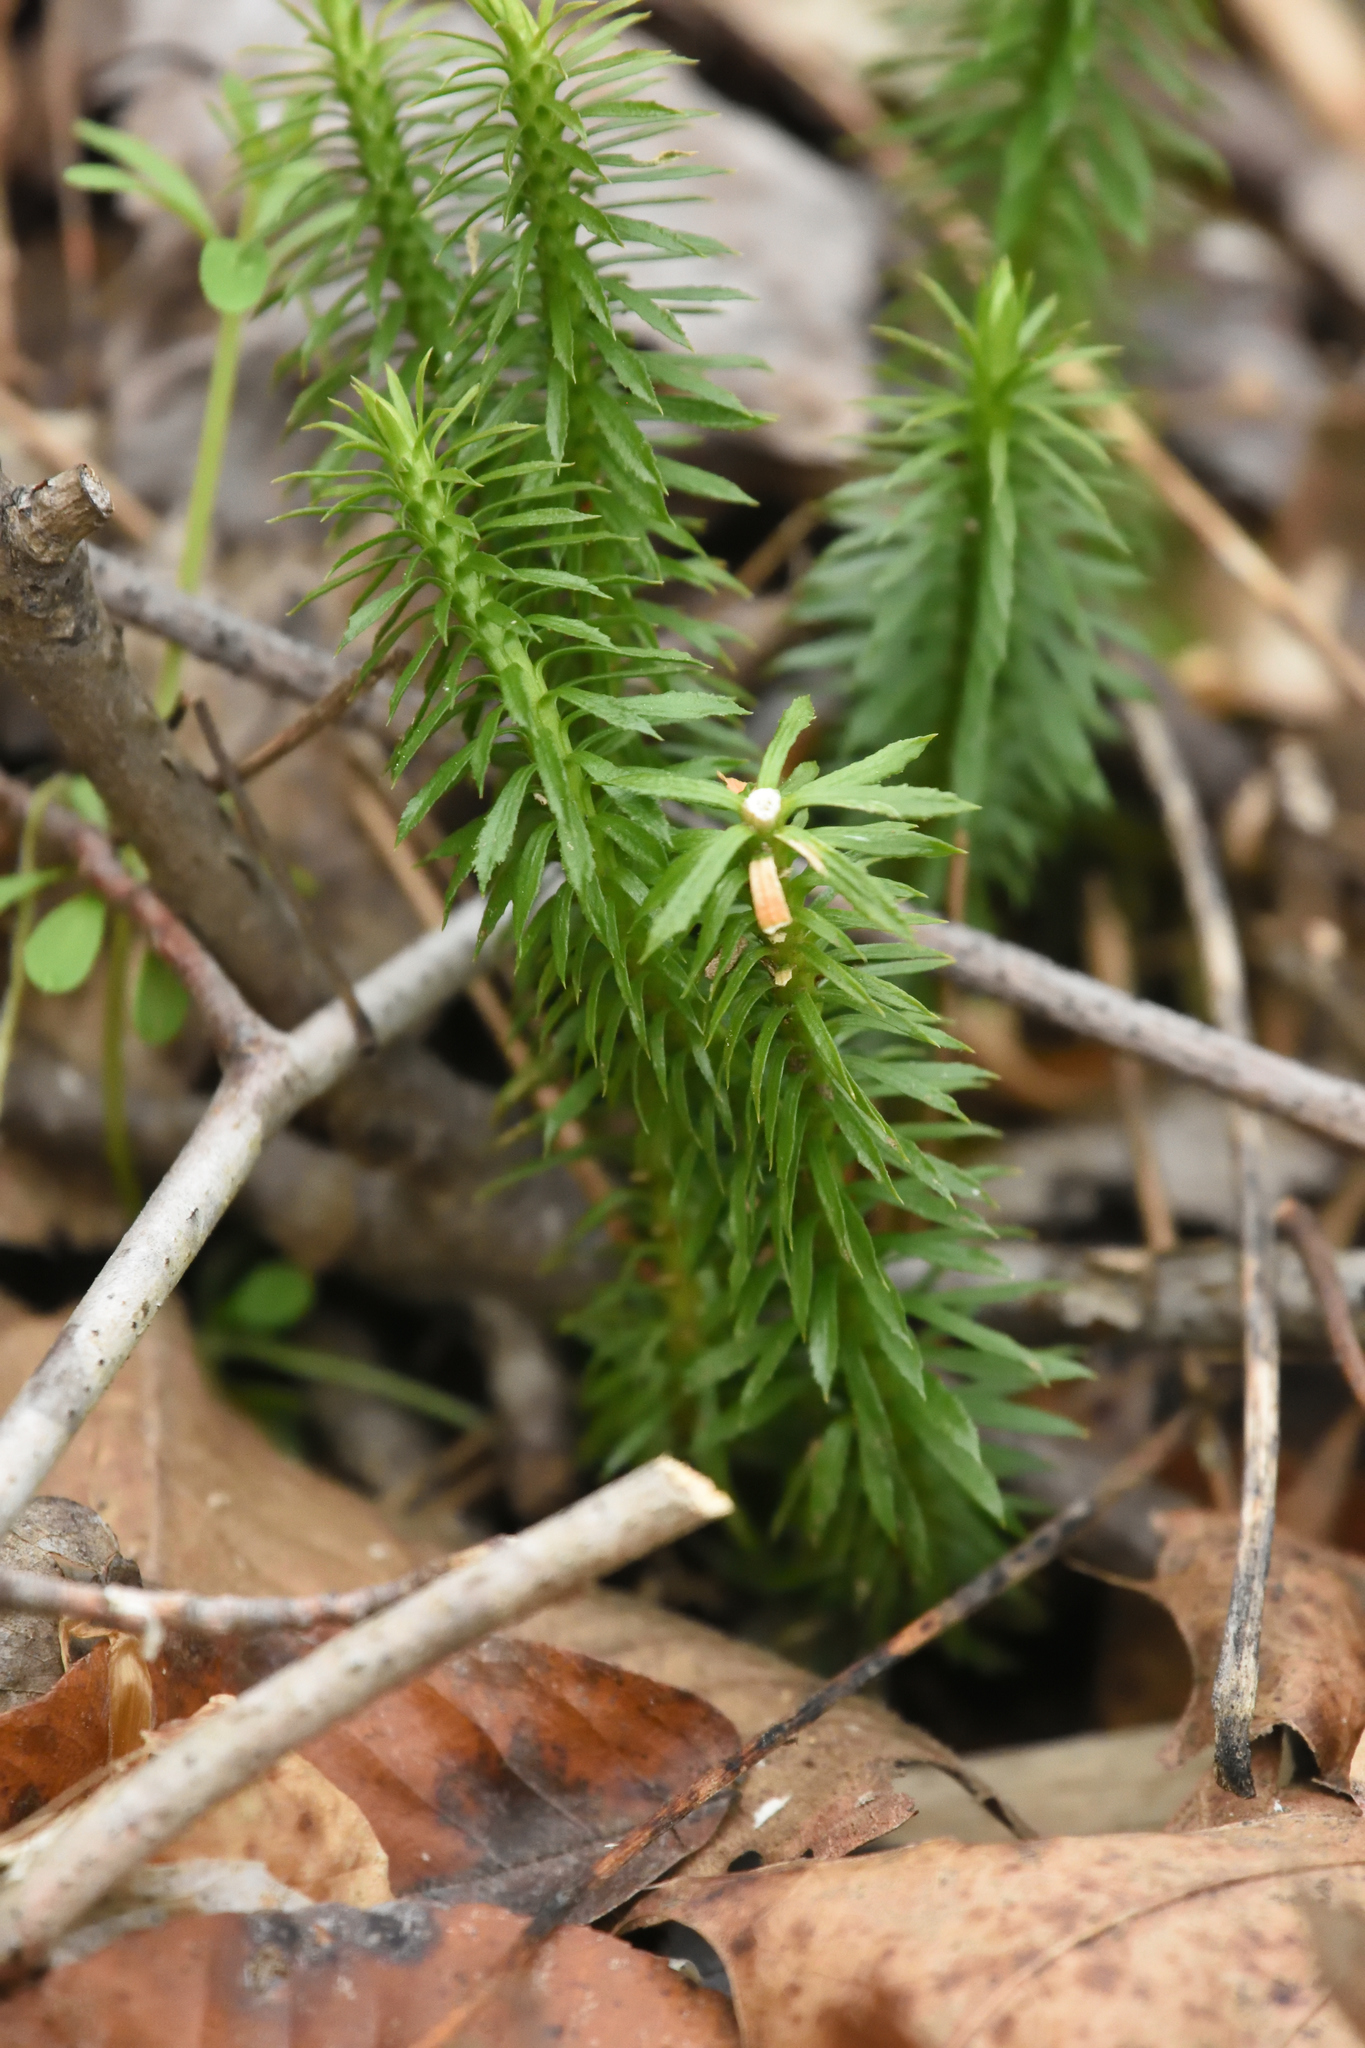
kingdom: Plantae
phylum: Tracheophyta
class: Lycopodiopsida
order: Lycopodiales
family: Lycopodiaceae
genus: Huperzia
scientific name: Huperzia lucidula
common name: Shining clubmoss
